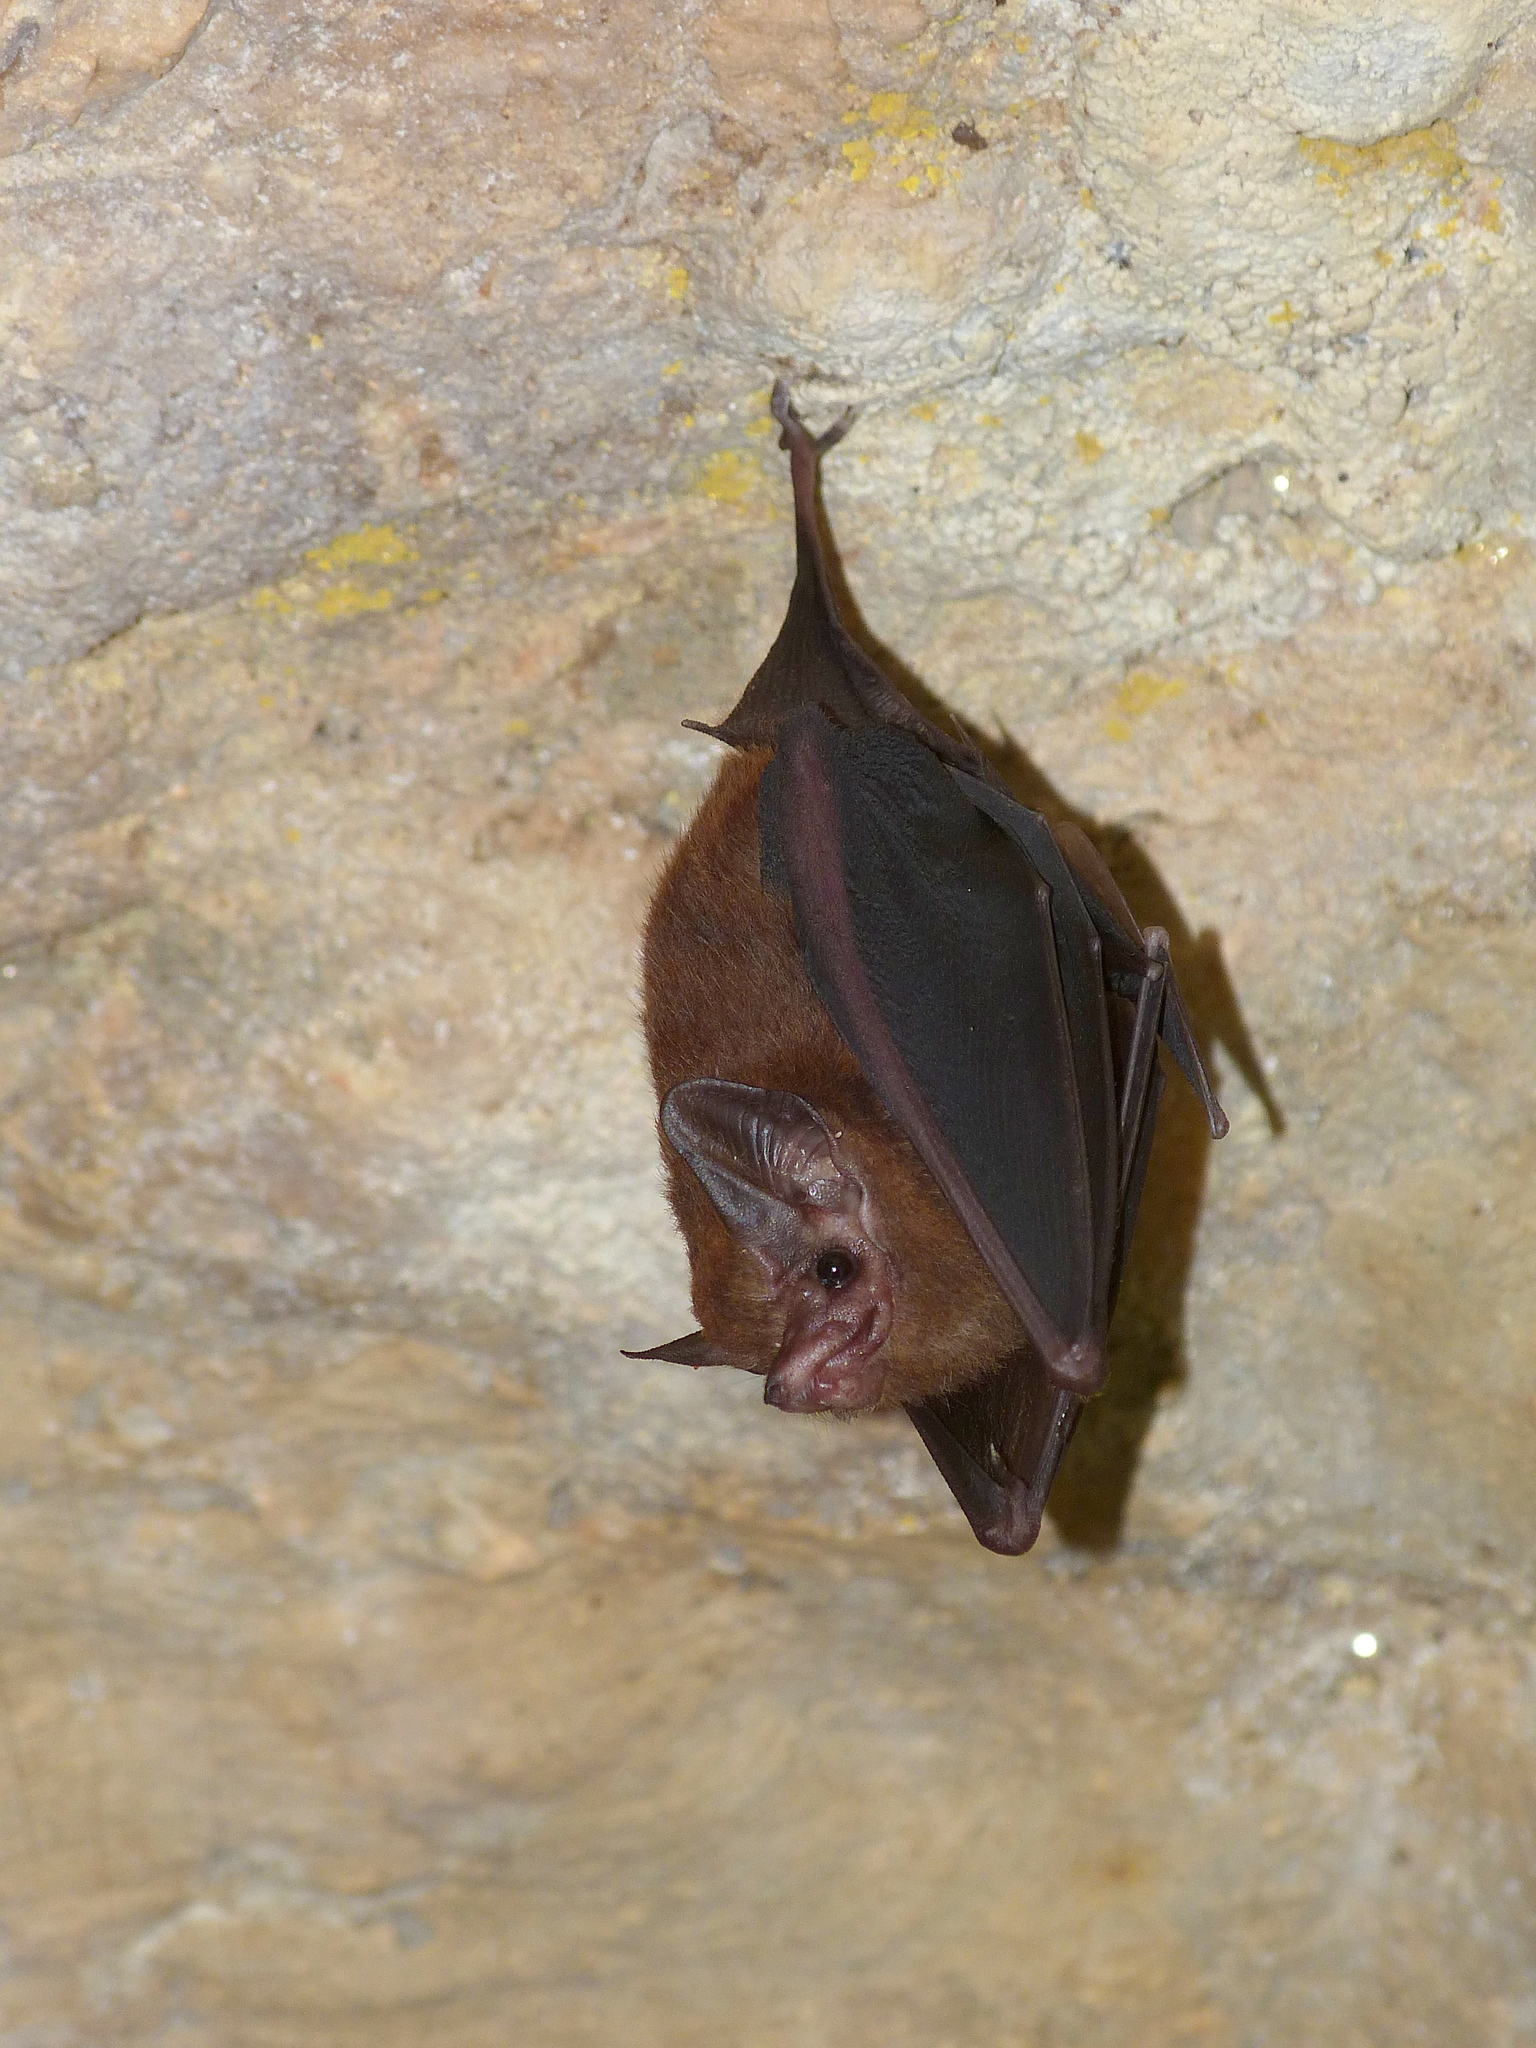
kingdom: Animalia
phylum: Chordata
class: Mammalia
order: Chiroptera
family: Emballonuridae
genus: Peropteryx
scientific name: Peropteryx macrotis
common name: Lesser dog-like bat
